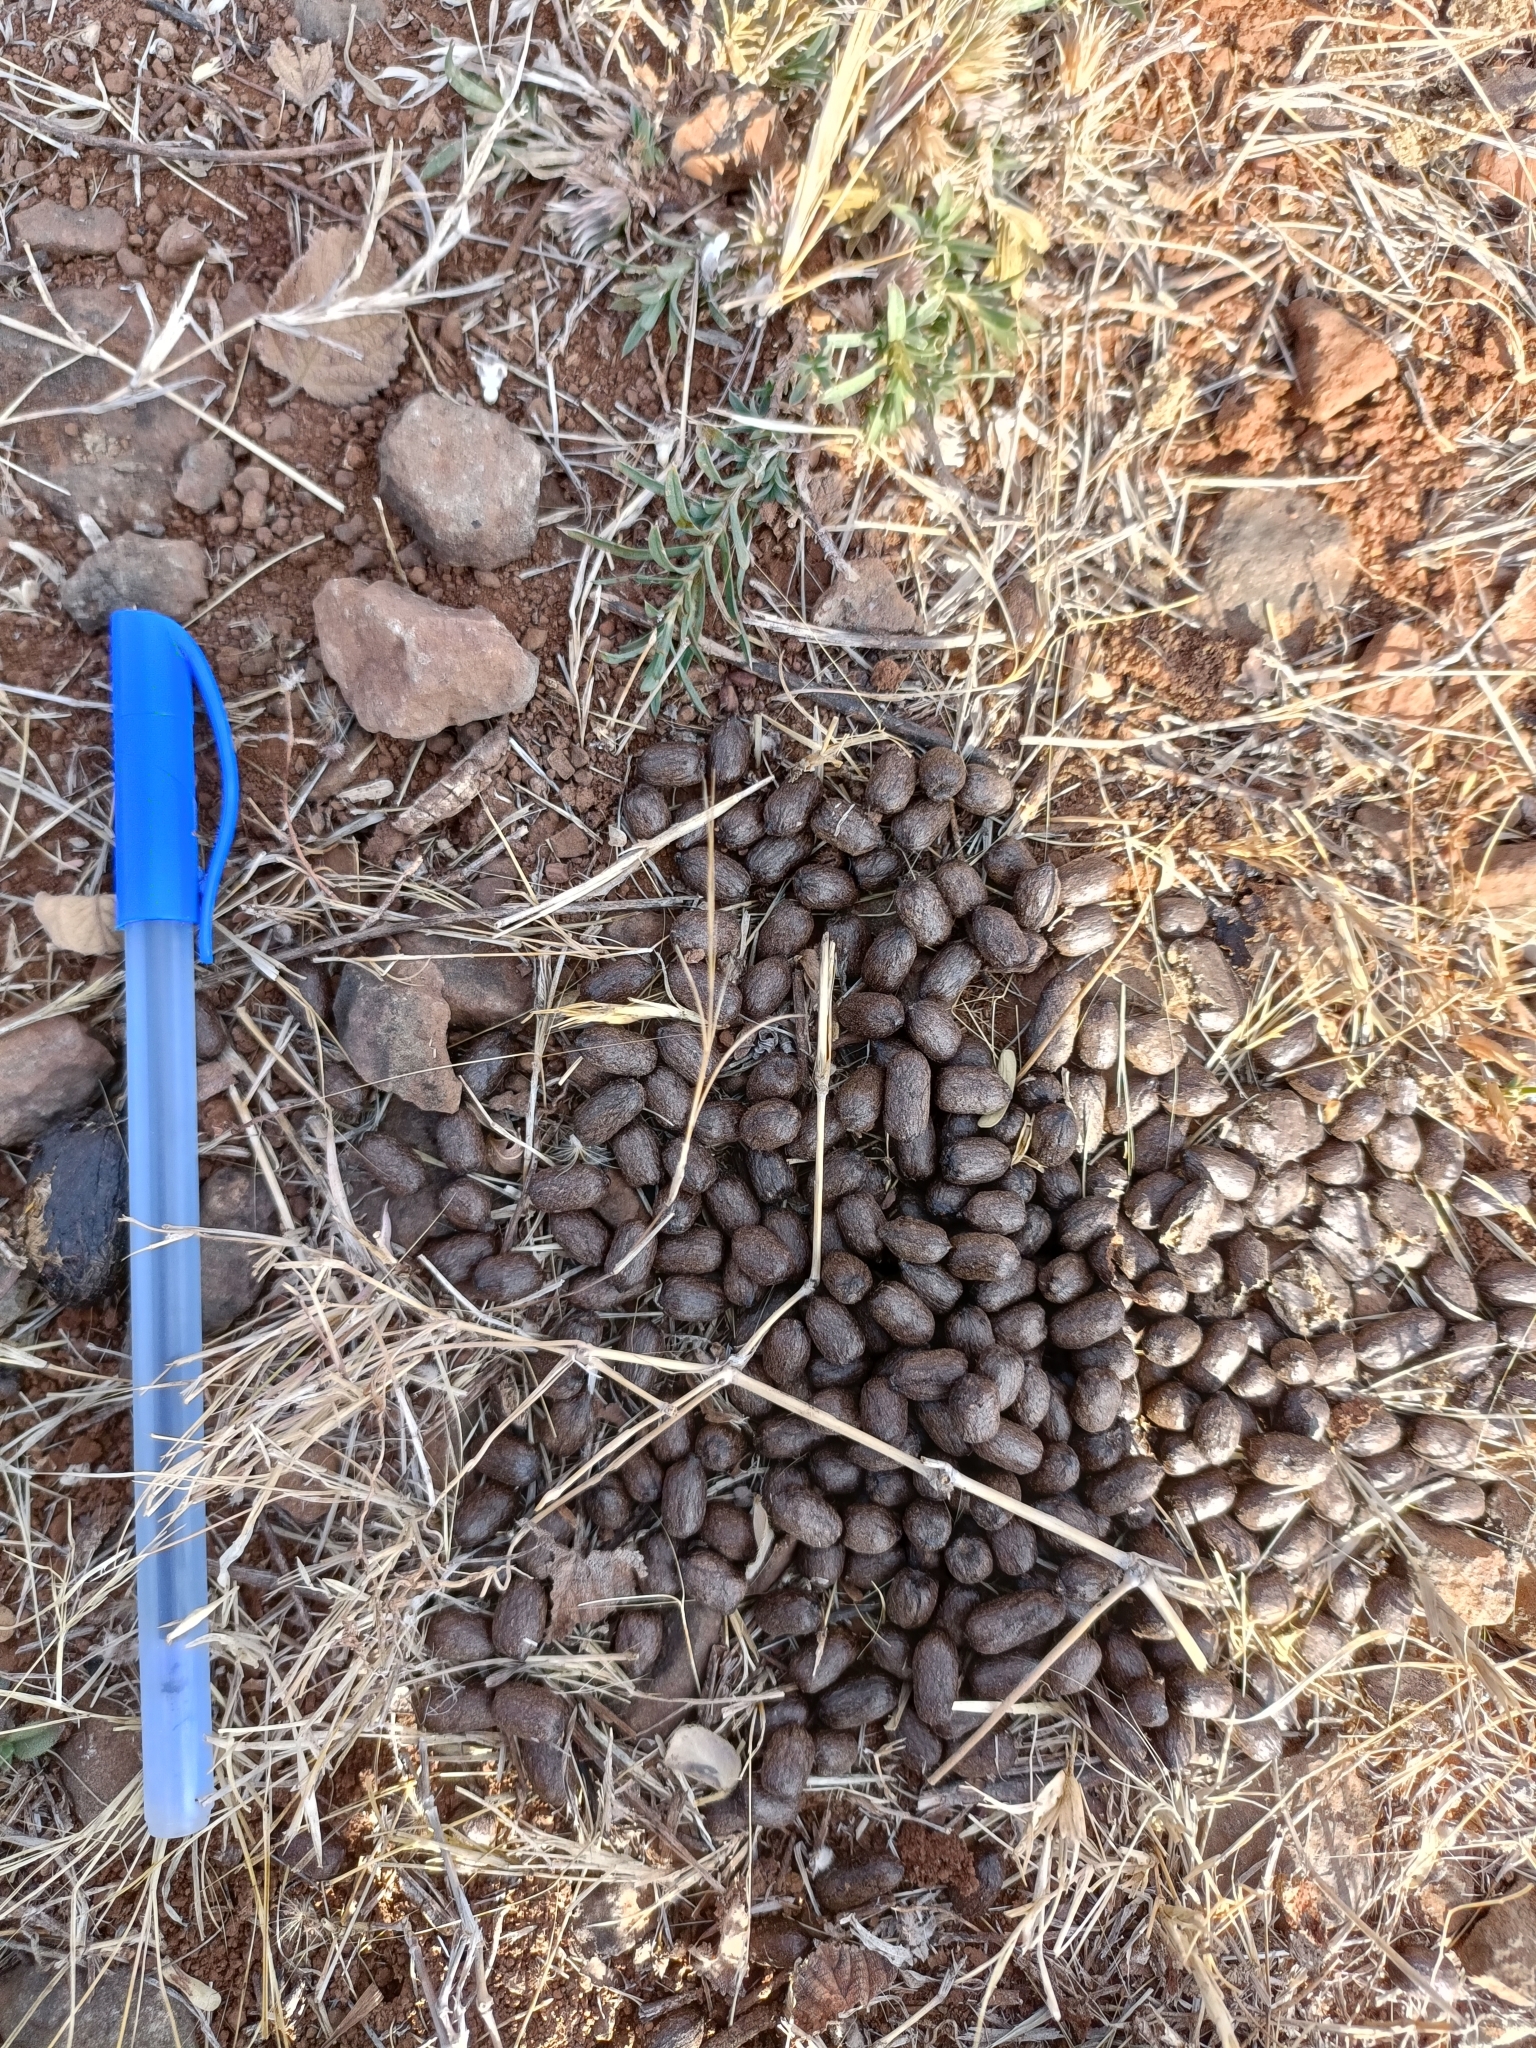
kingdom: Animalia
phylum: Chordata
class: Mammalia
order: Artiodactyla
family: Bovidae
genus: Gazella
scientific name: Gazella bennettii
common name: Indian gazelle
